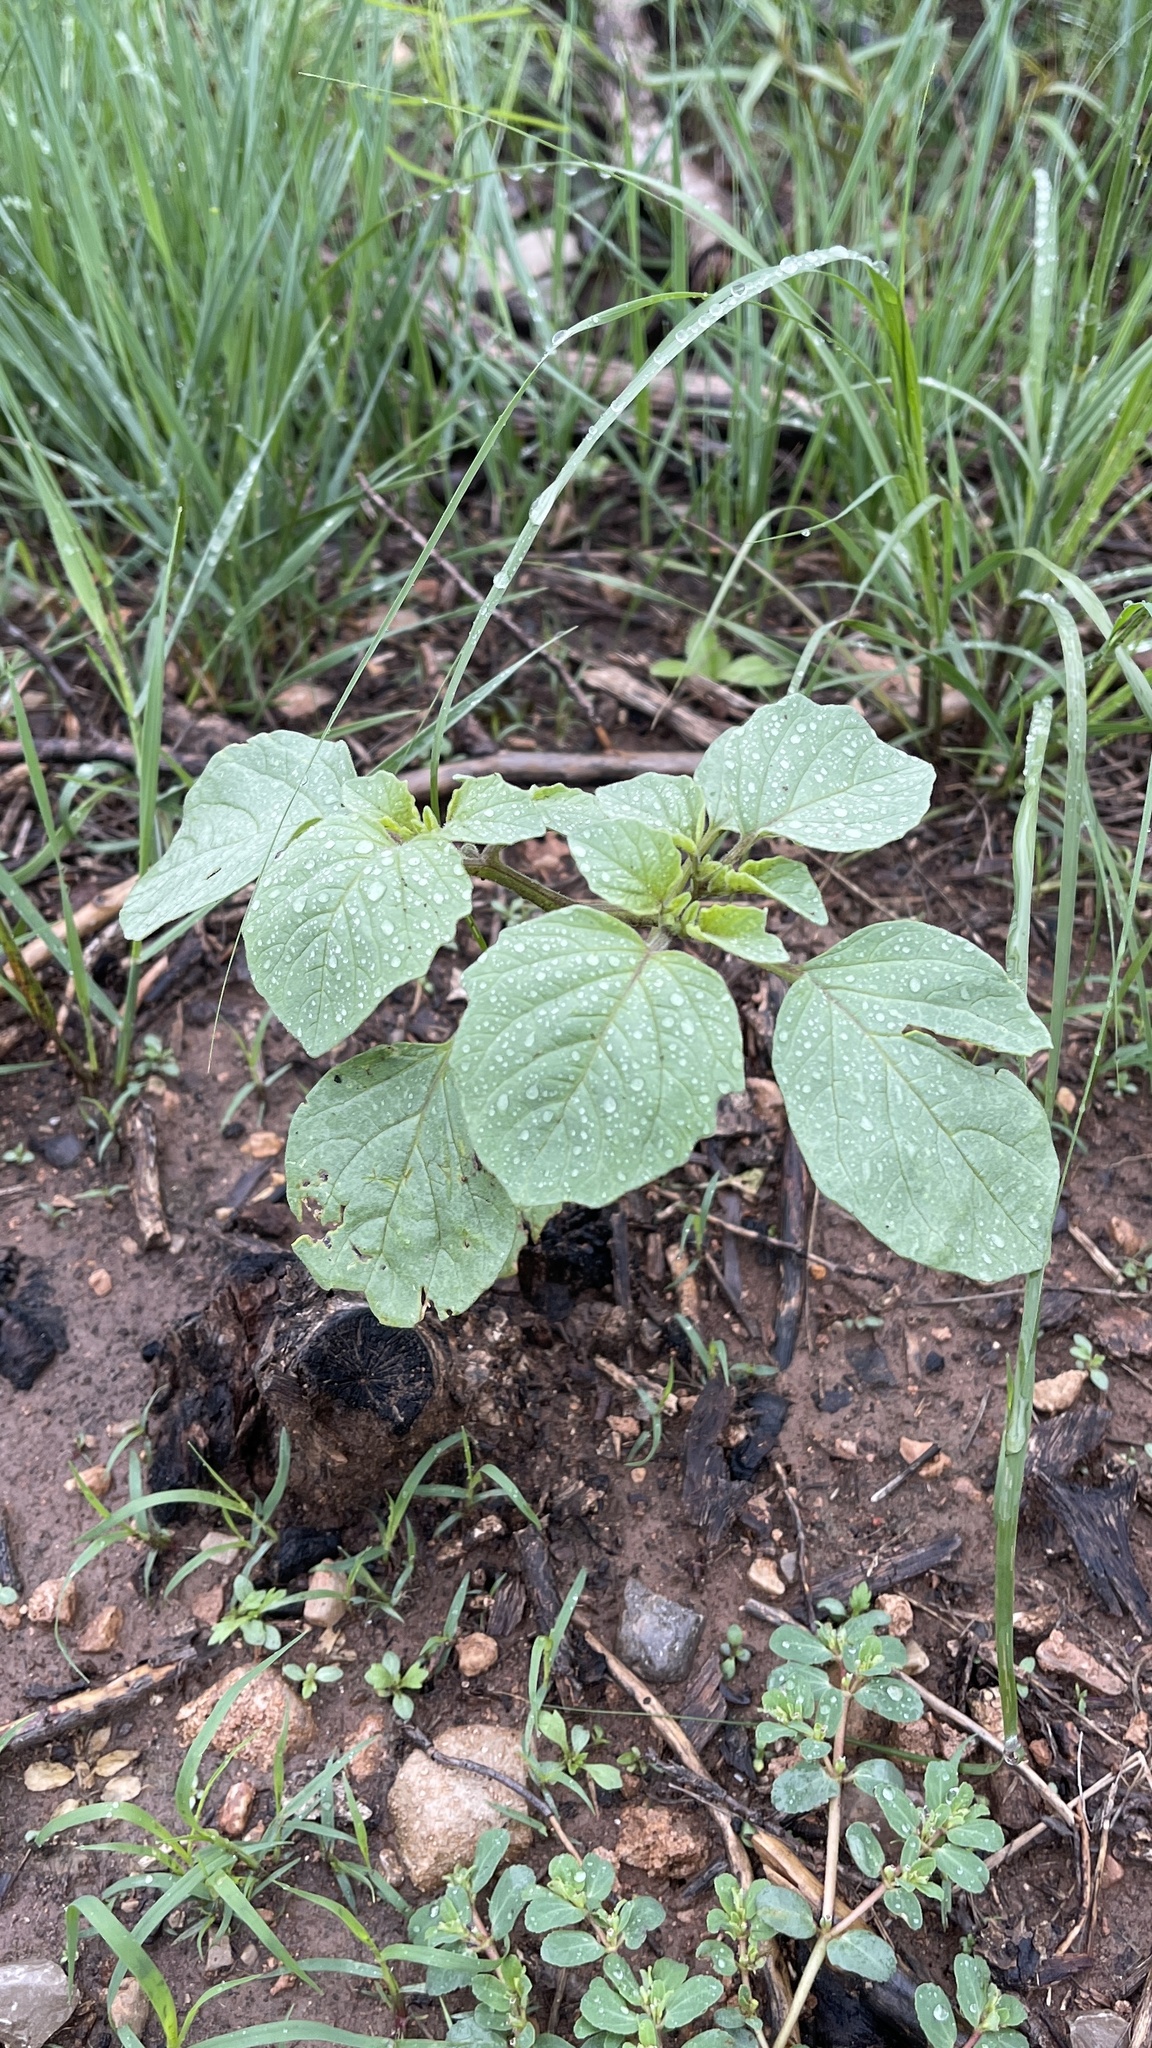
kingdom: Plantae
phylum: Tracheophyta
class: Magnoliopsida
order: Solanales
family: Solanaceae
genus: Physalis
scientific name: Physalis neomexicana
